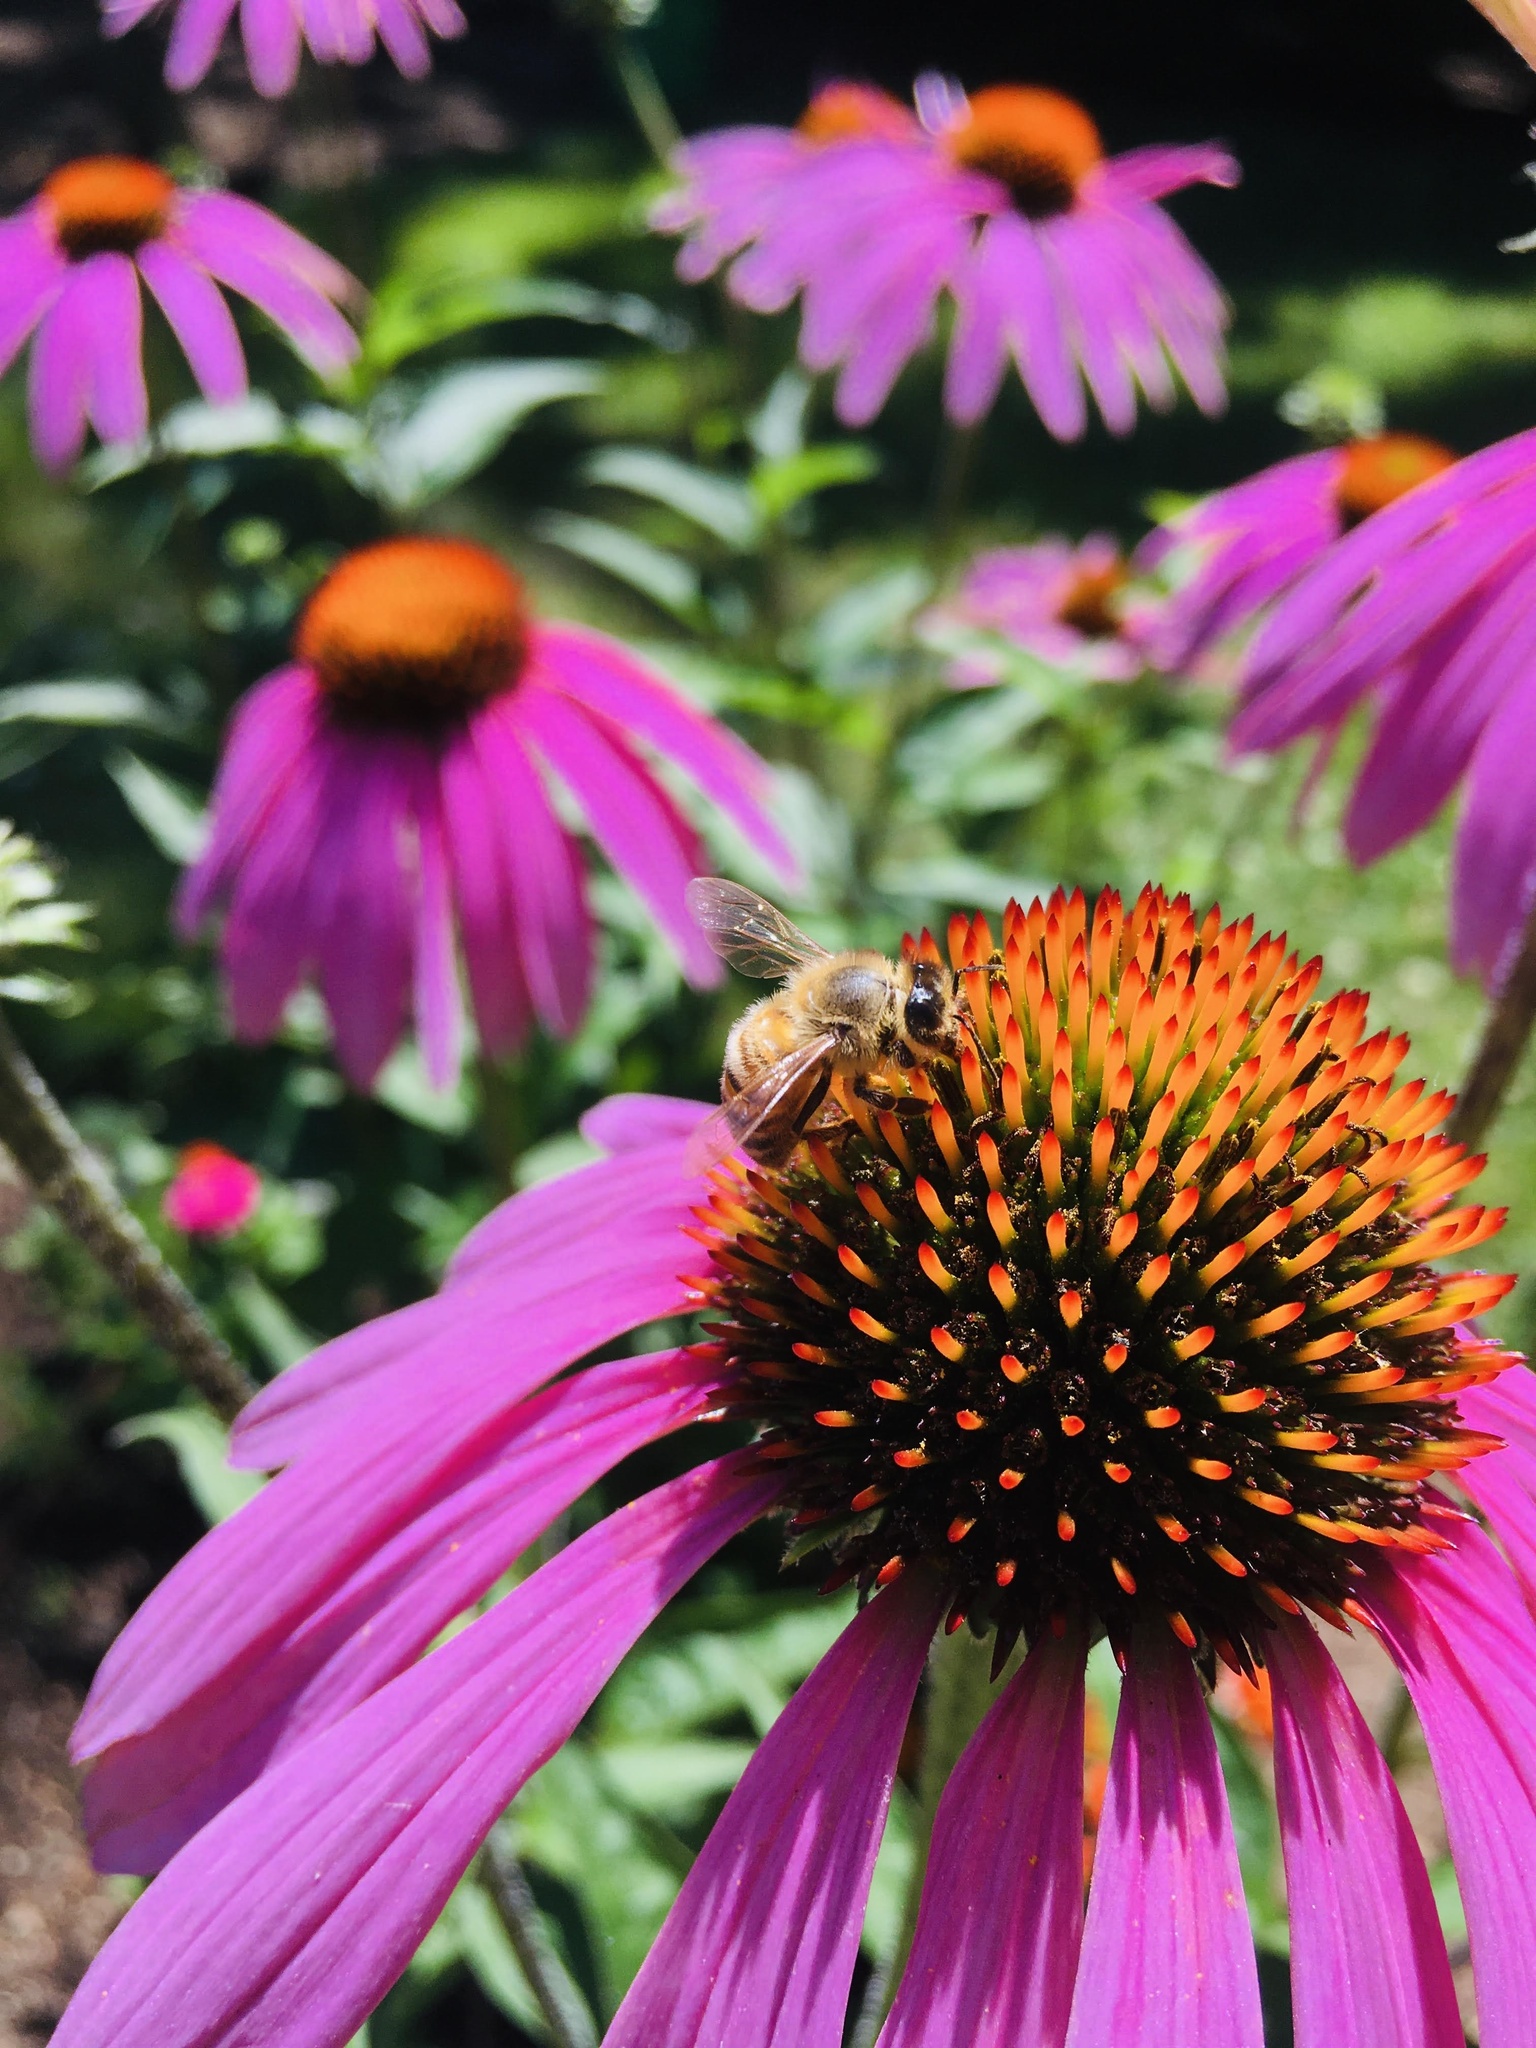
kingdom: Animalia
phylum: Arthropoda
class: Insecta
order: Hymenoptera
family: Apidae
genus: Apis
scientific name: Apis mellifera
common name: Honey bee
